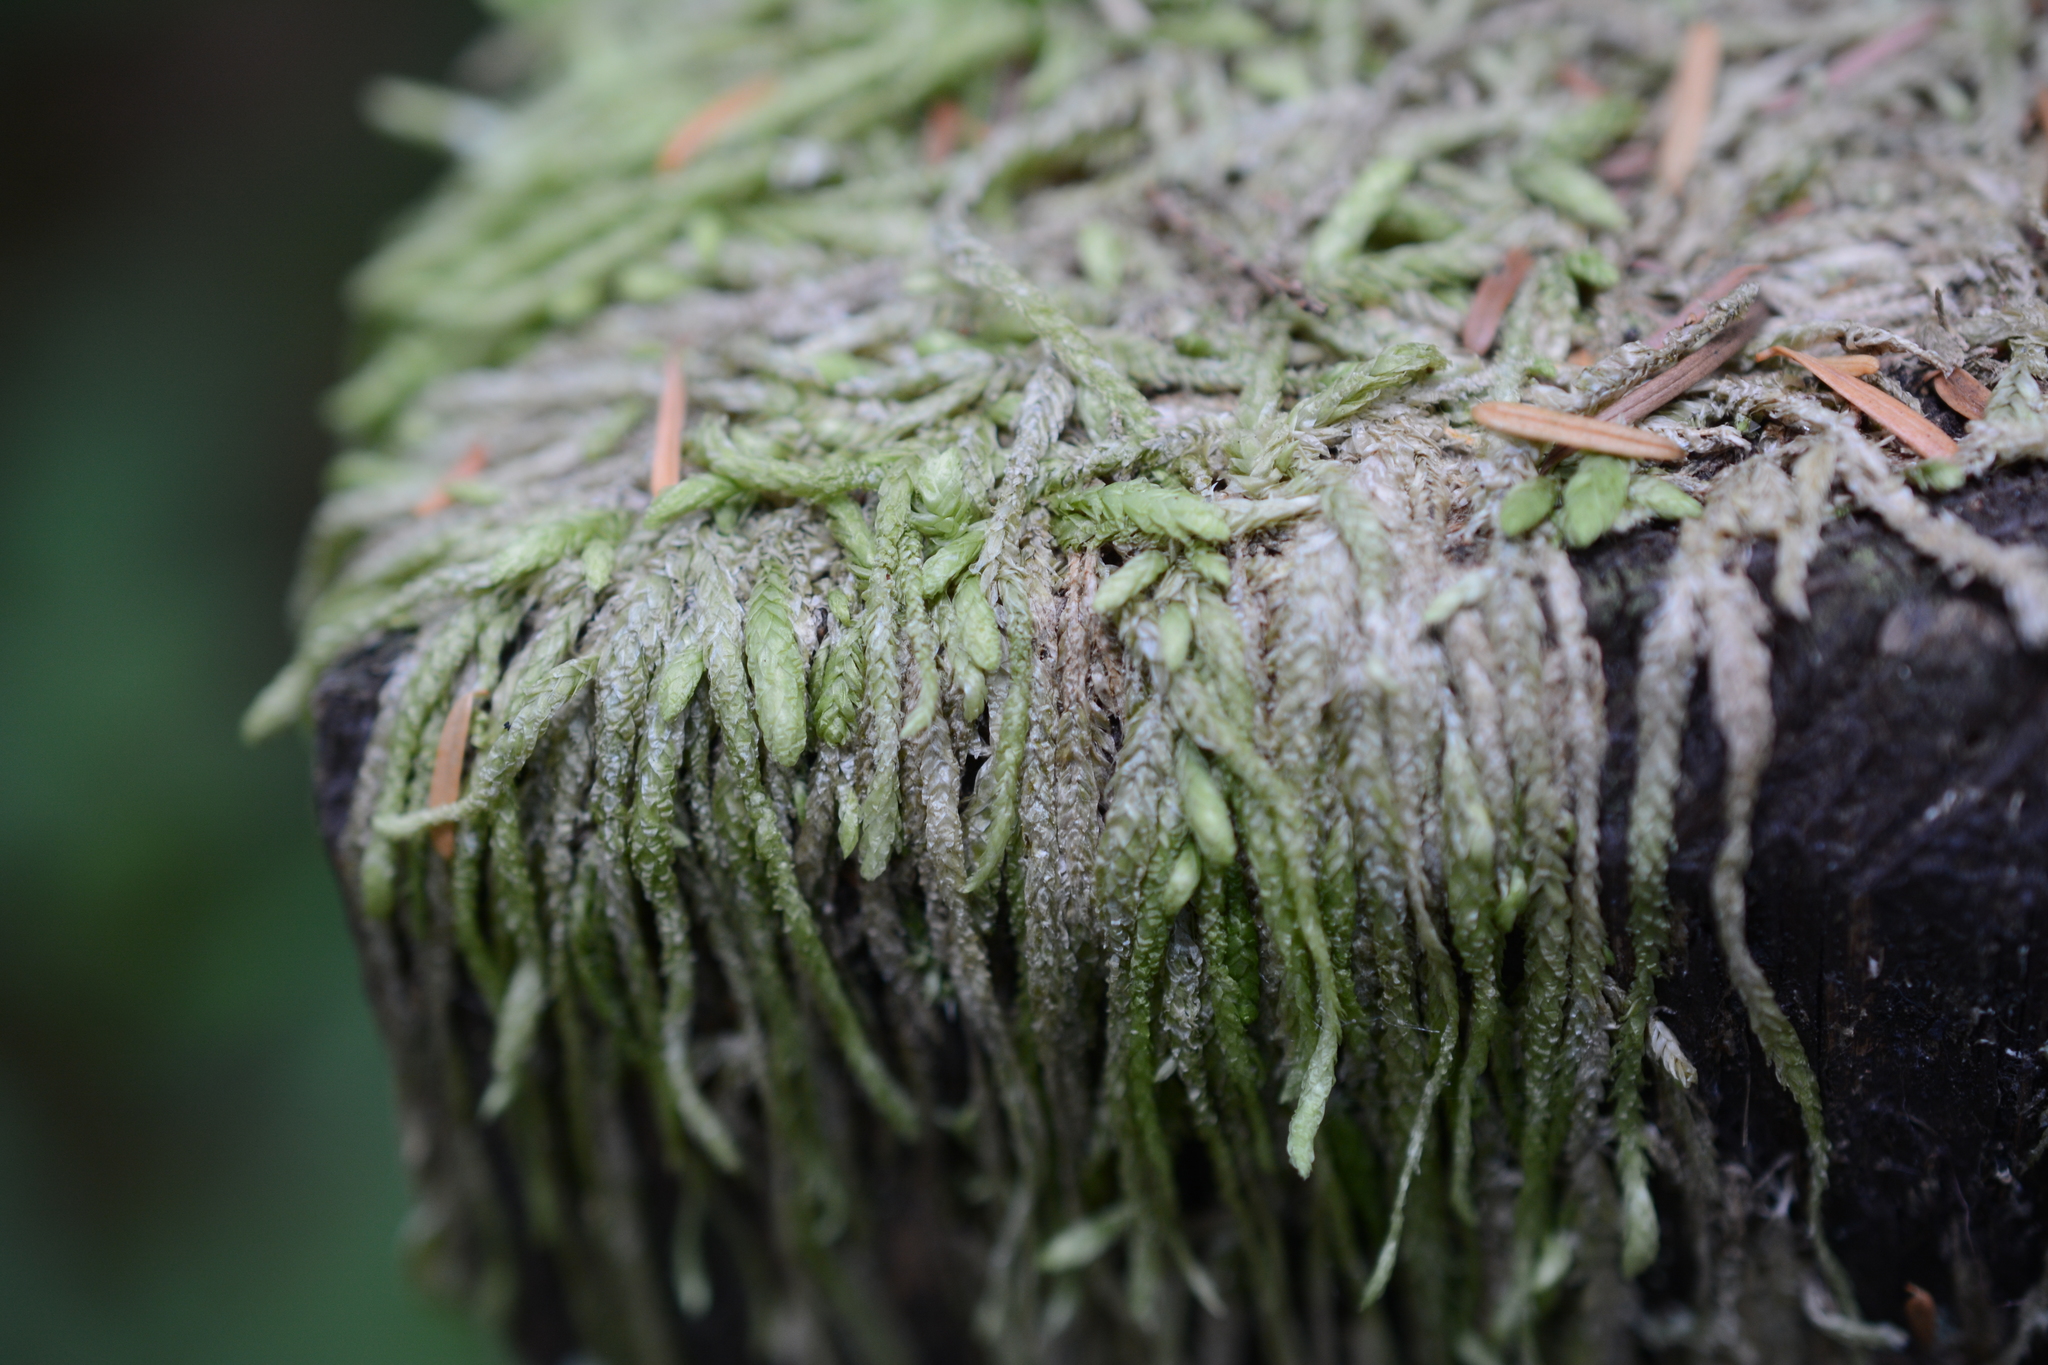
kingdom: Plantae
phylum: Bryophyta
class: Bryopsida
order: Hypnales
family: Plagiotheciaceae
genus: Plagiothecium
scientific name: Plagiothecium undulatum
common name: Waved silk-moss
